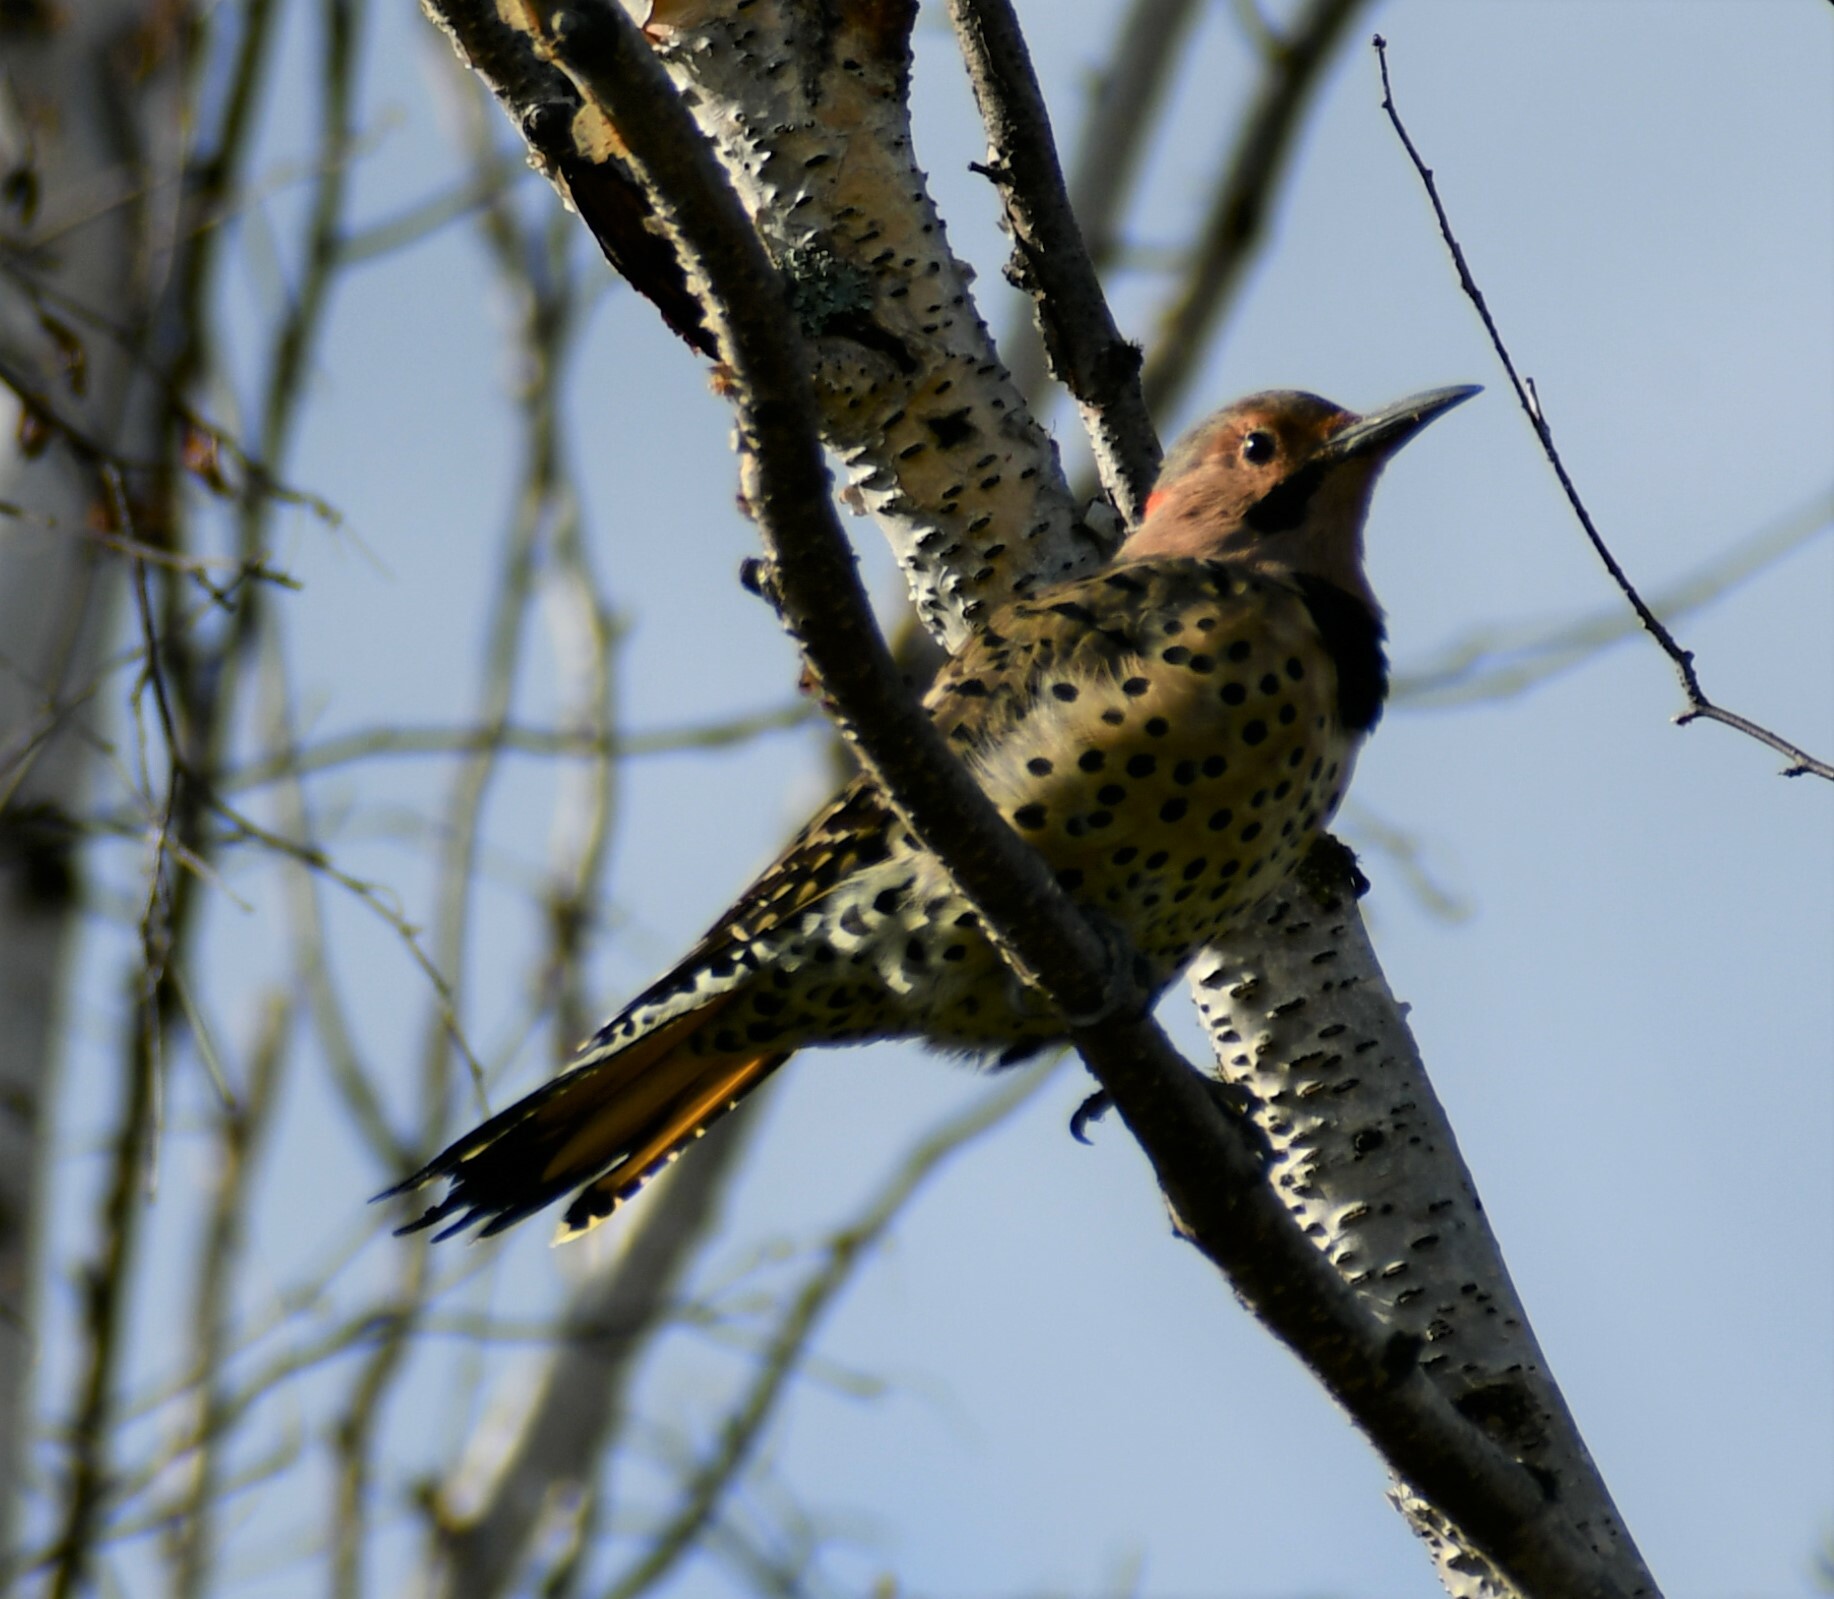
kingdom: Animalia
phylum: Chordata
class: Aves
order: Piciformes
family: Picidae
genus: Colaptes
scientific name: Colaptes auratus
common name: Northern flicker
